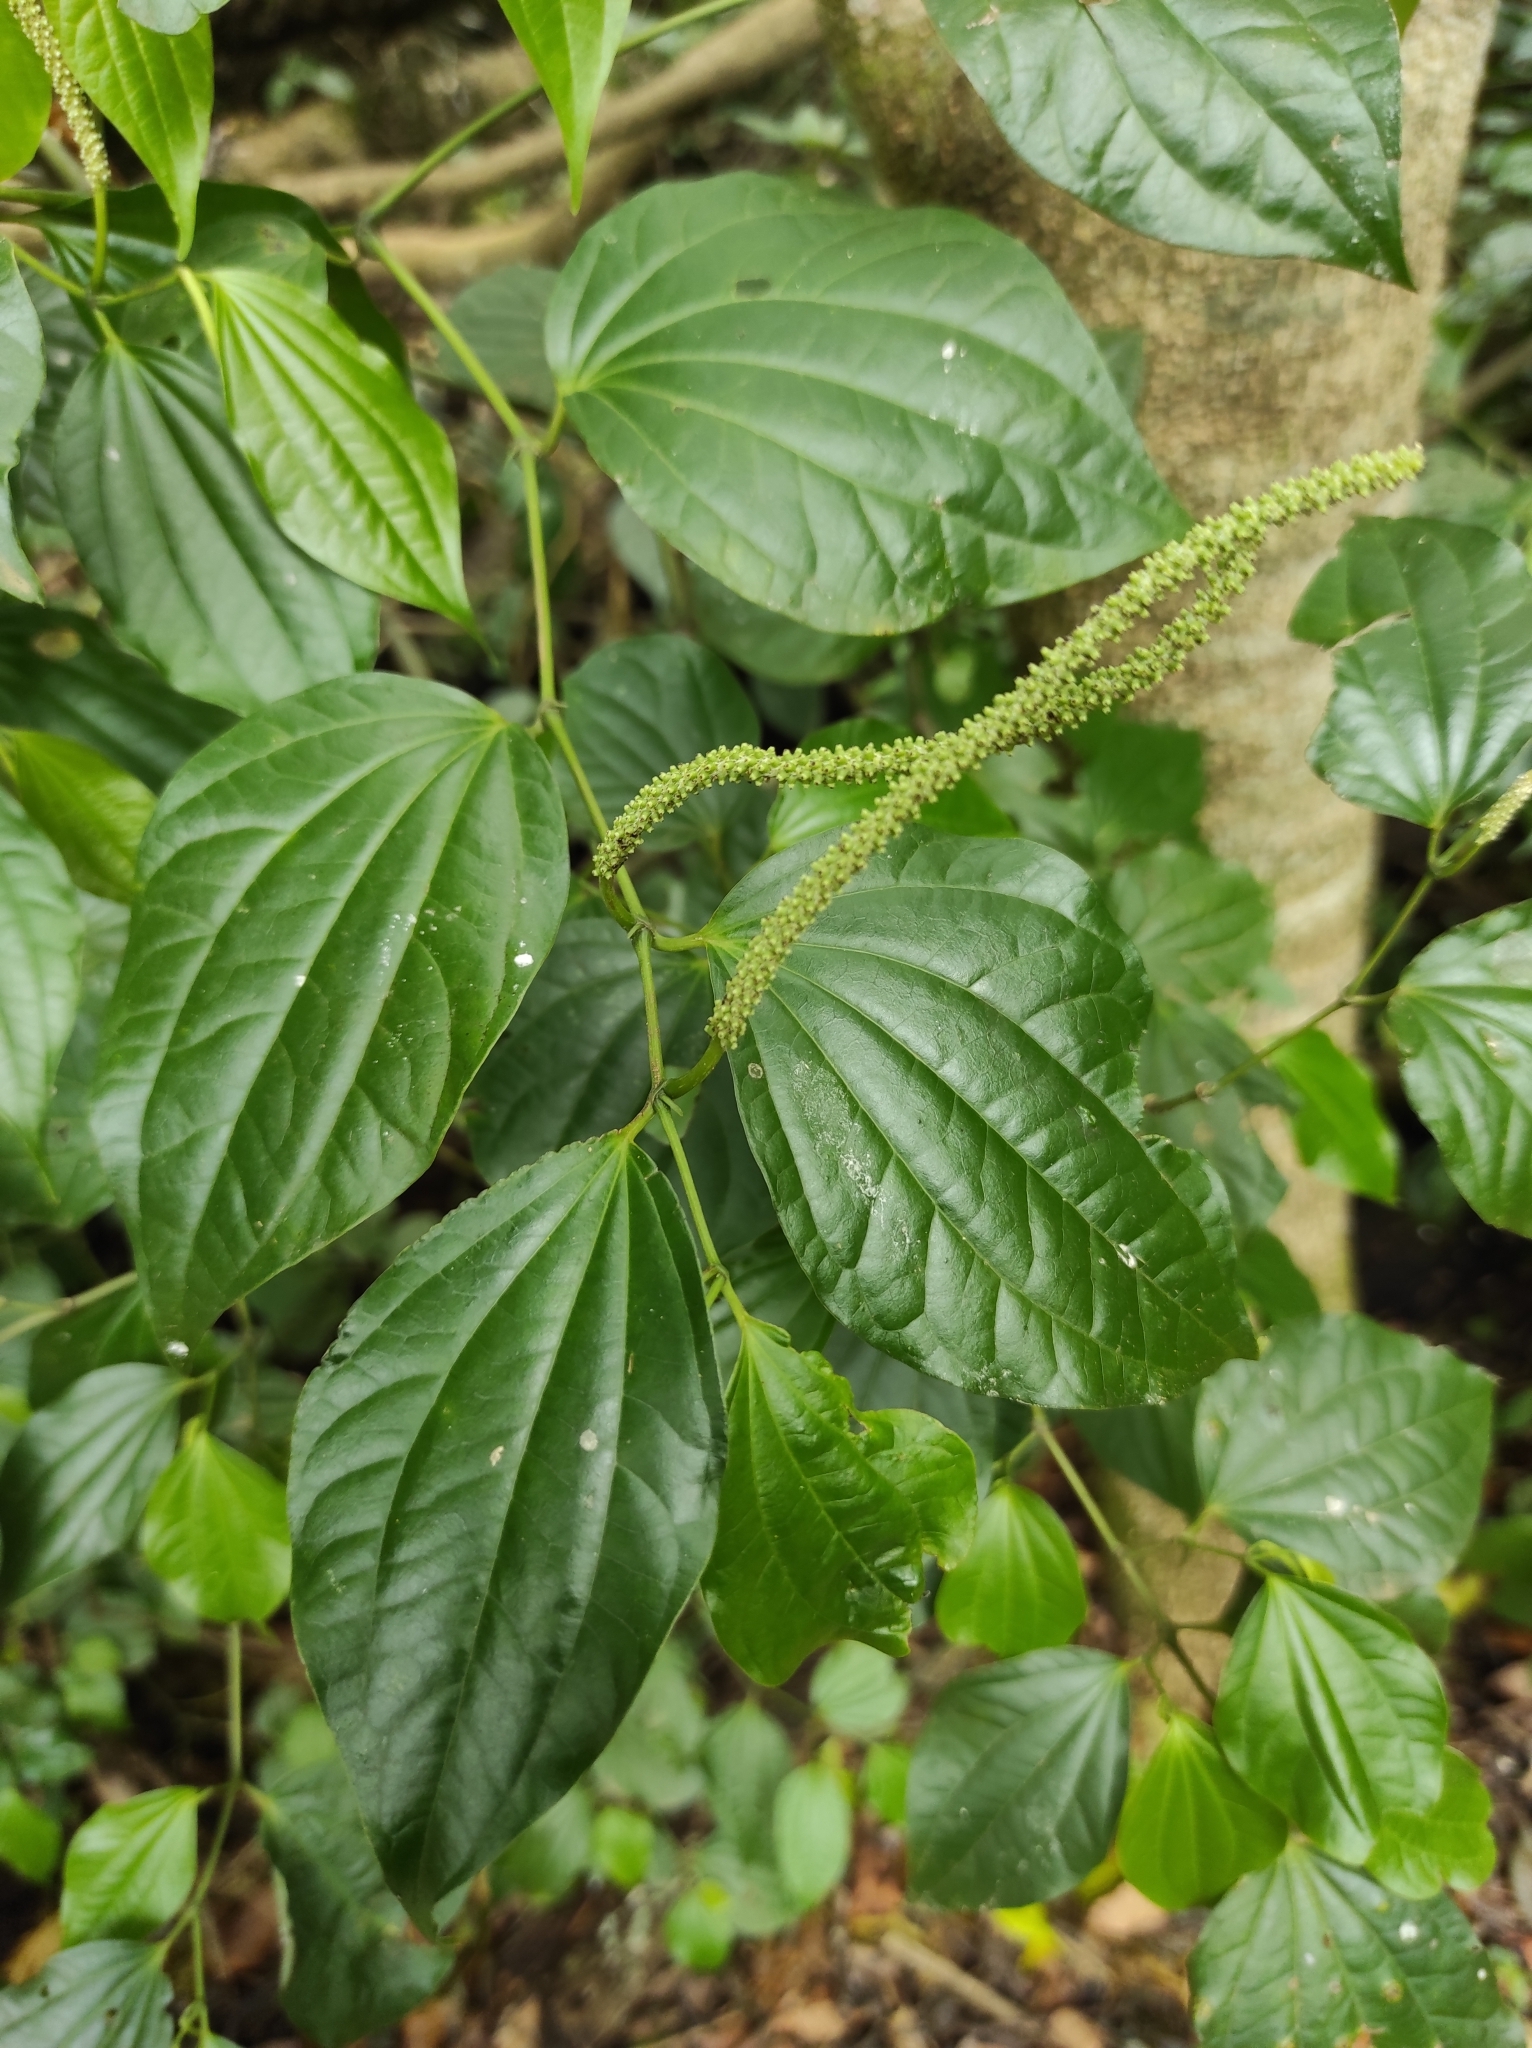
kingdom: Plantae
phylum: Tracheophyta
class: Magnoliopsida
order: Piperales
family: Piperaceae
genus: Piper
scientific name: Piper amalago
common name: Pepper-elder
